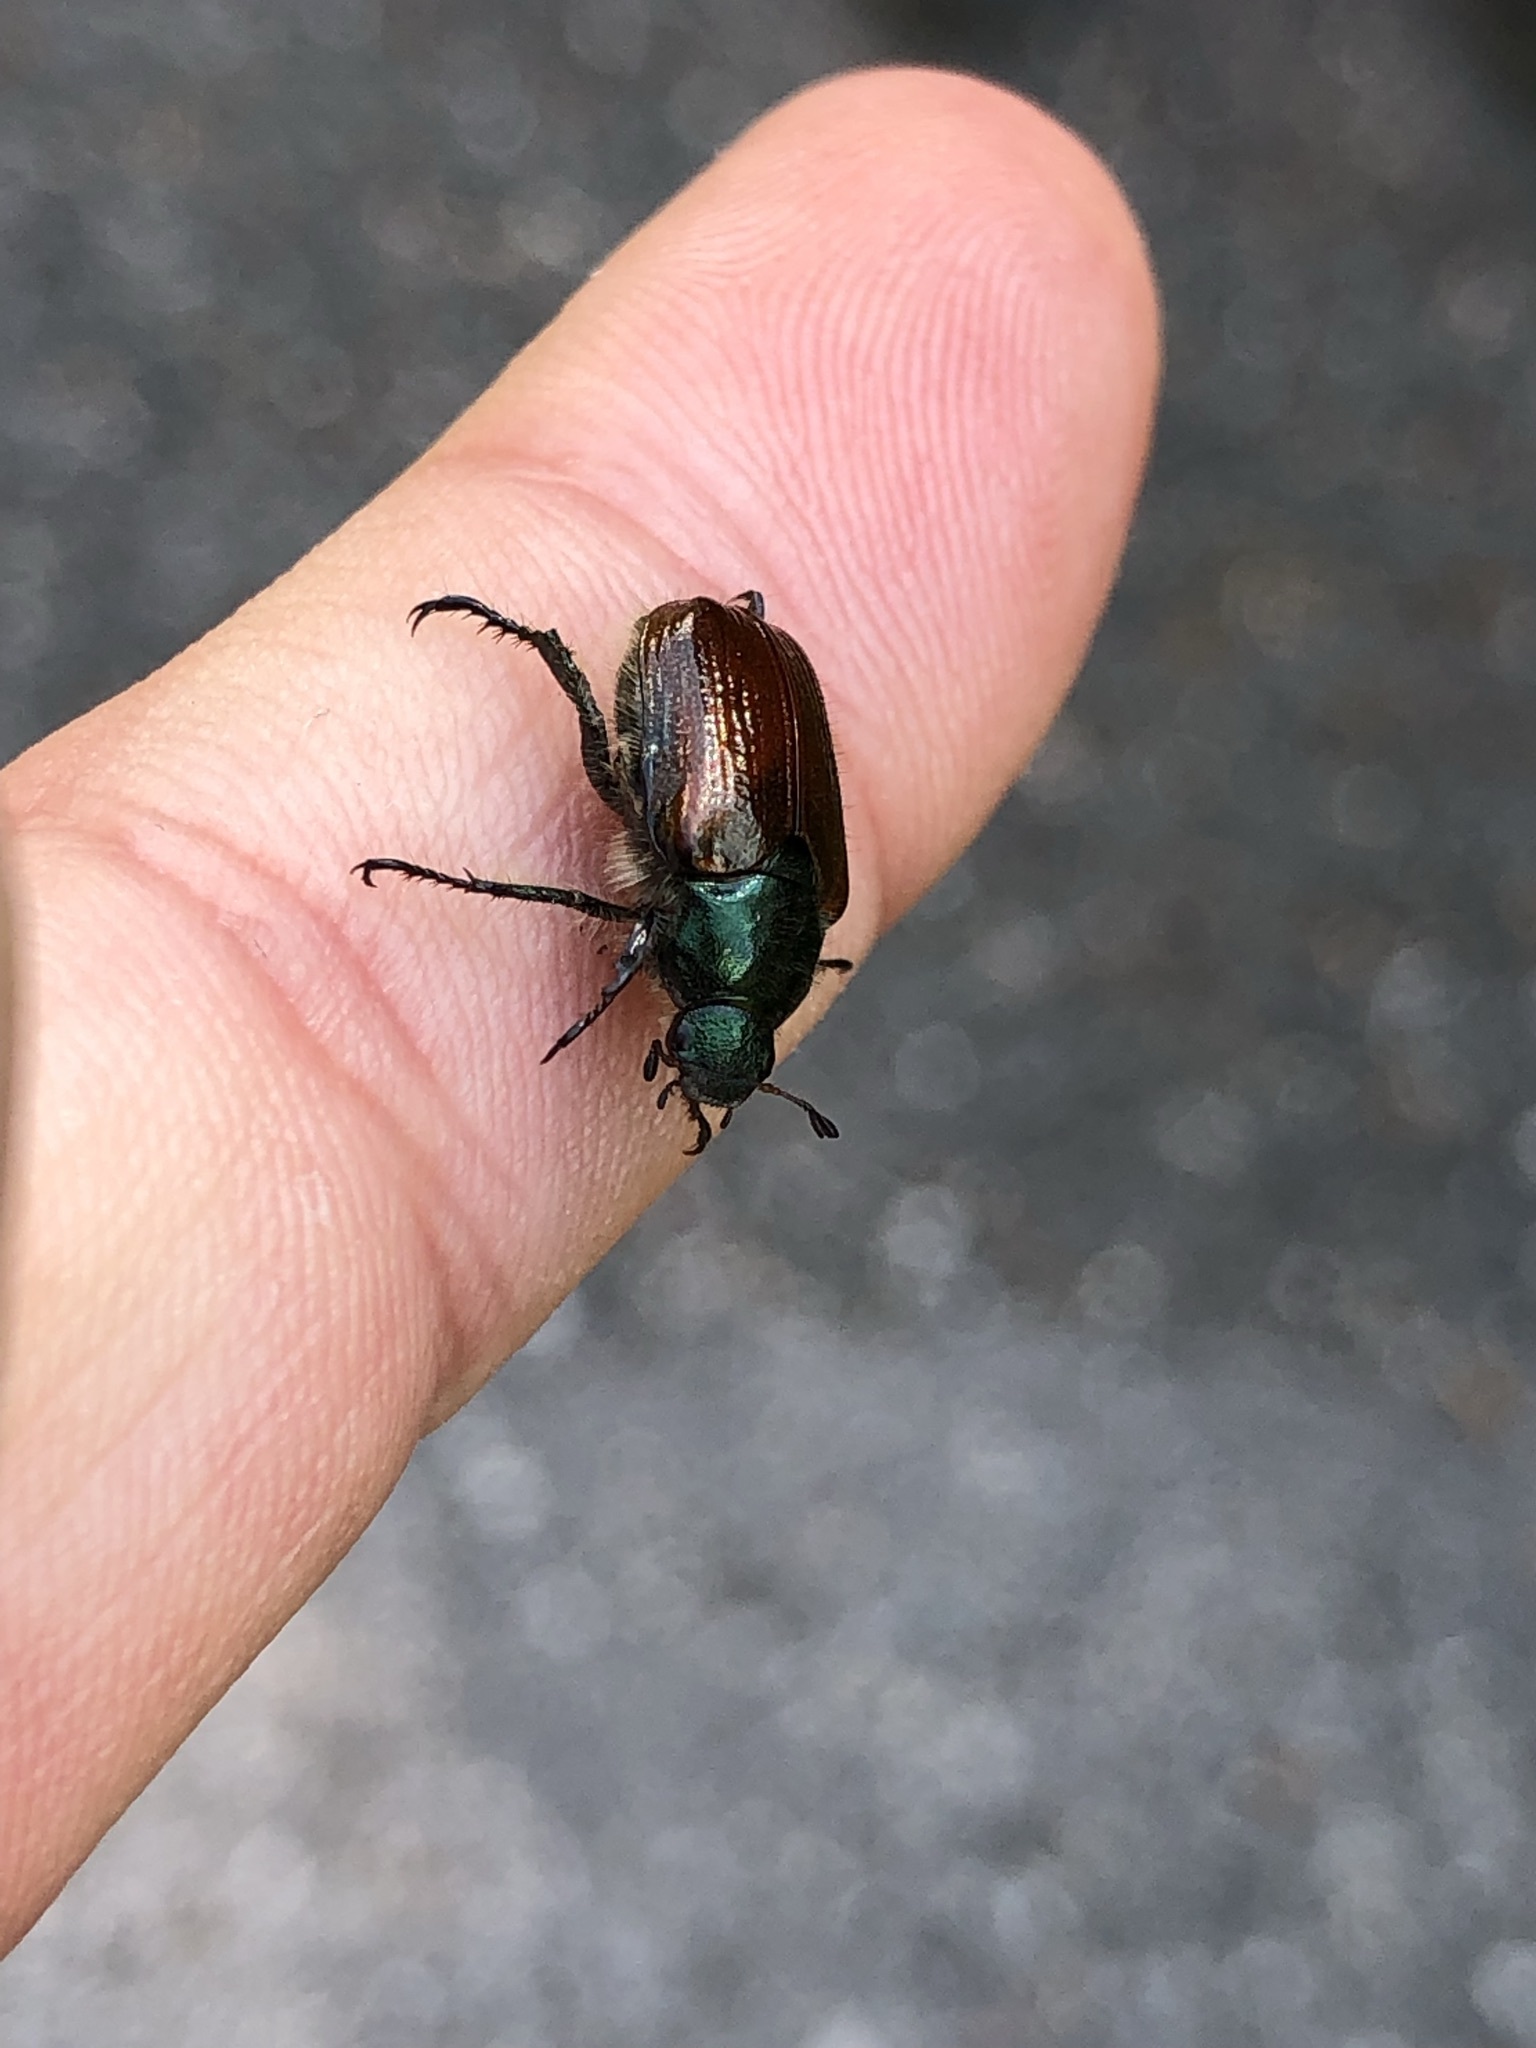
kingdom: Animalia
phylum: Arthropoda
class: Insecta
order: Coleoptera
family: Scarabaeidae
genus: Phyllopertha
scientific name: Phyllopertha horticola
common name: Garden chafer
